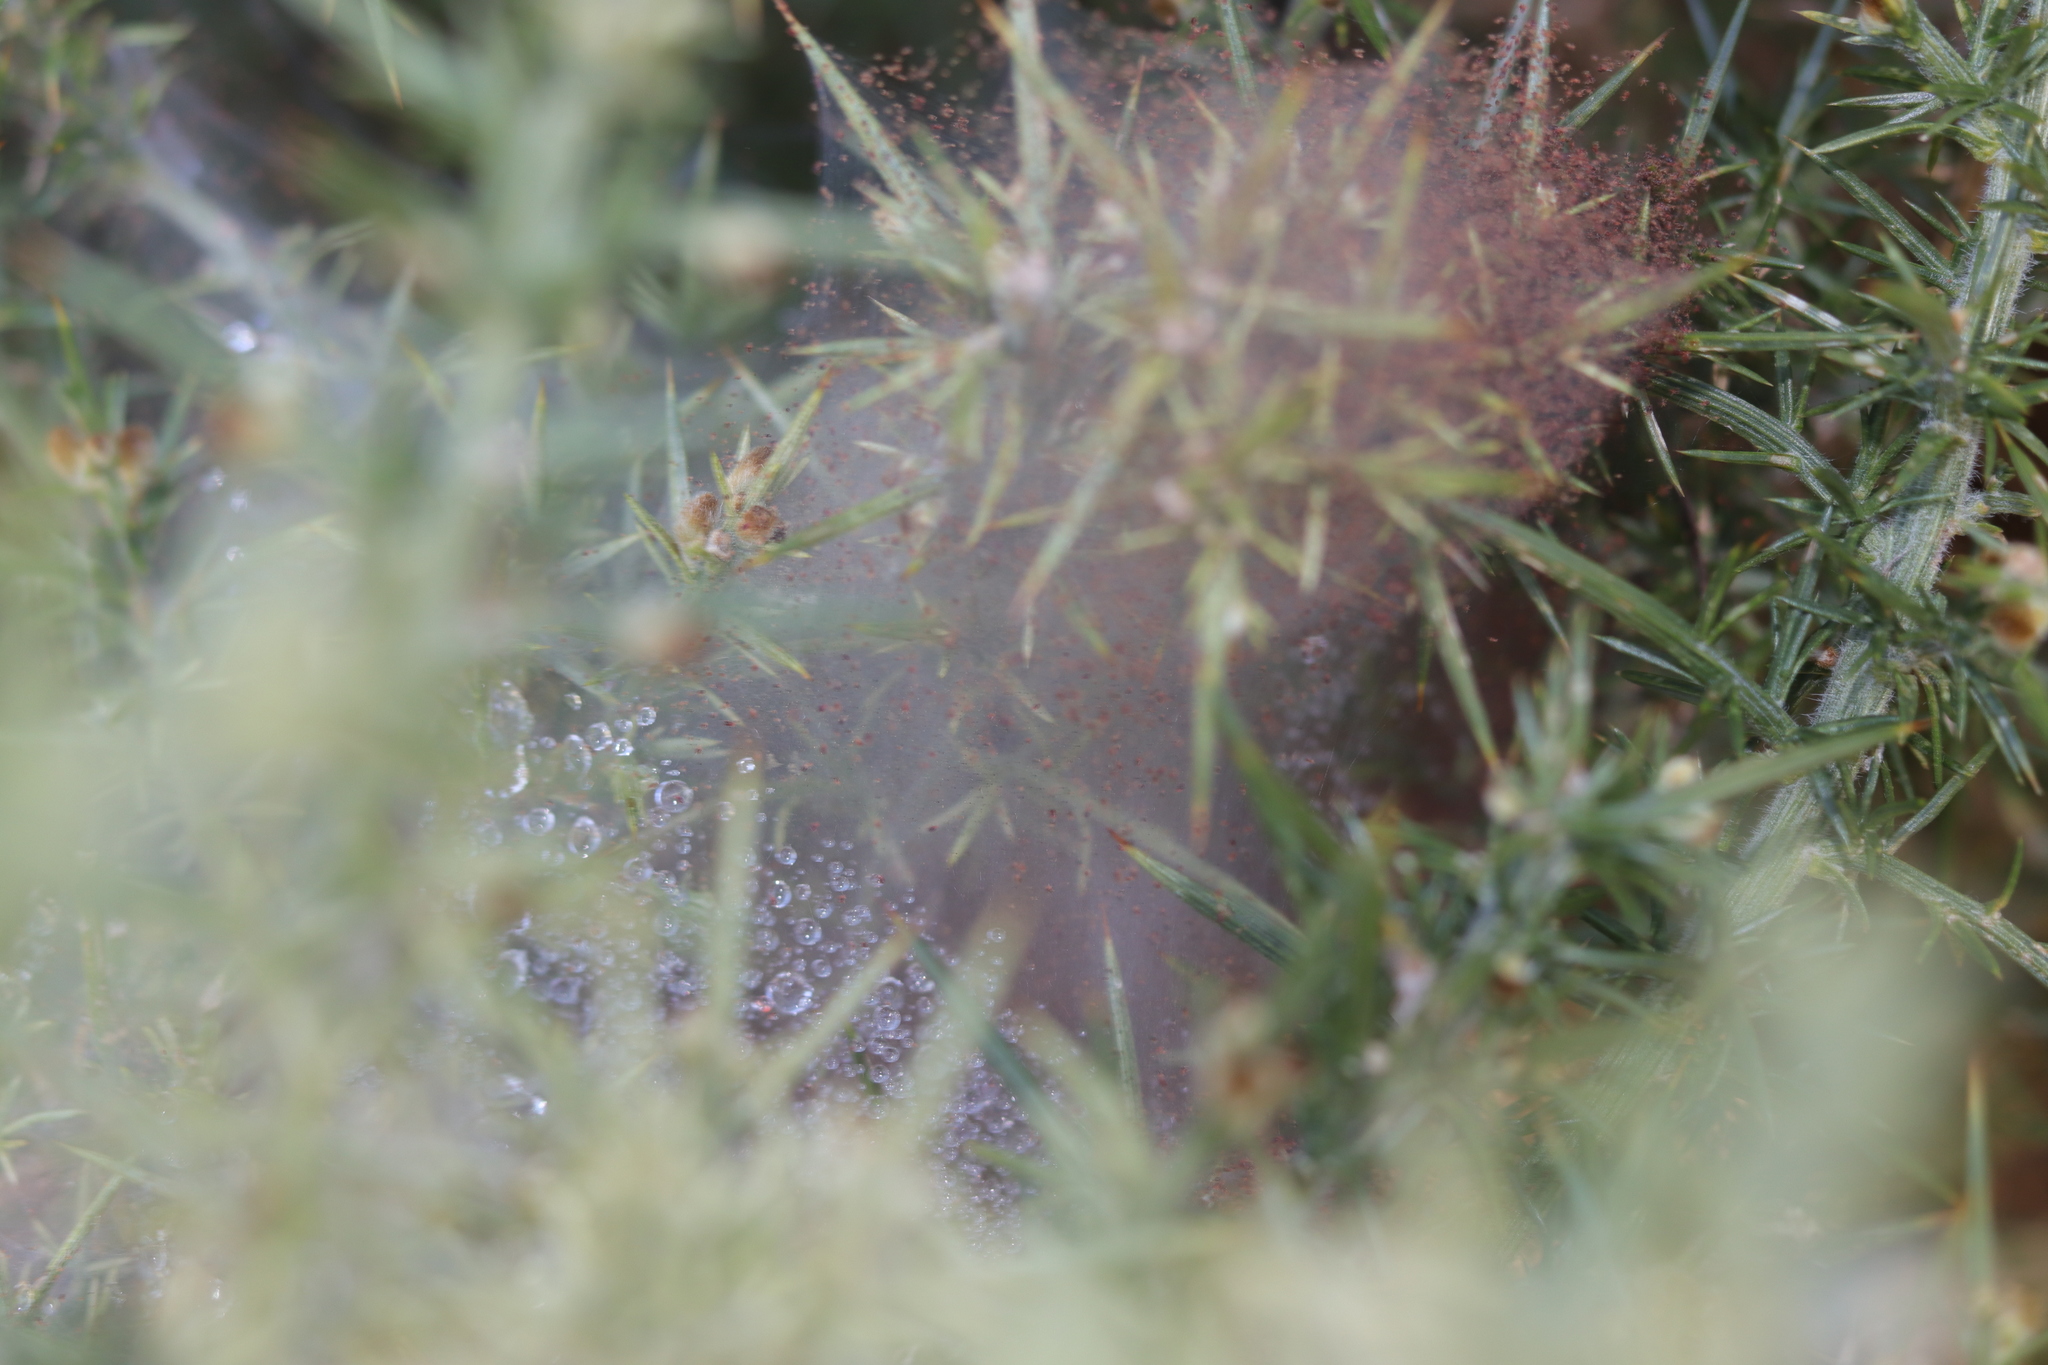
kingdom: Animalia
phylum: Arthropoda
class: Arachnida
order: Trombidiformes
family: Tetranychidae
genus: Tetranychus
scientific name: Tetranychus lintearius
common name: Gorse spider mite
